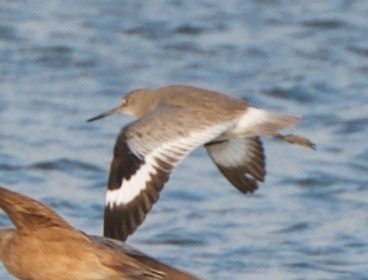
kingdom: Animalia
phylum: Chordata
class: Aves
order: Charadriiformes
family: Scolopacidae
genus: Tringa
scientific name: Tringa semipalmata
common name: Willet
